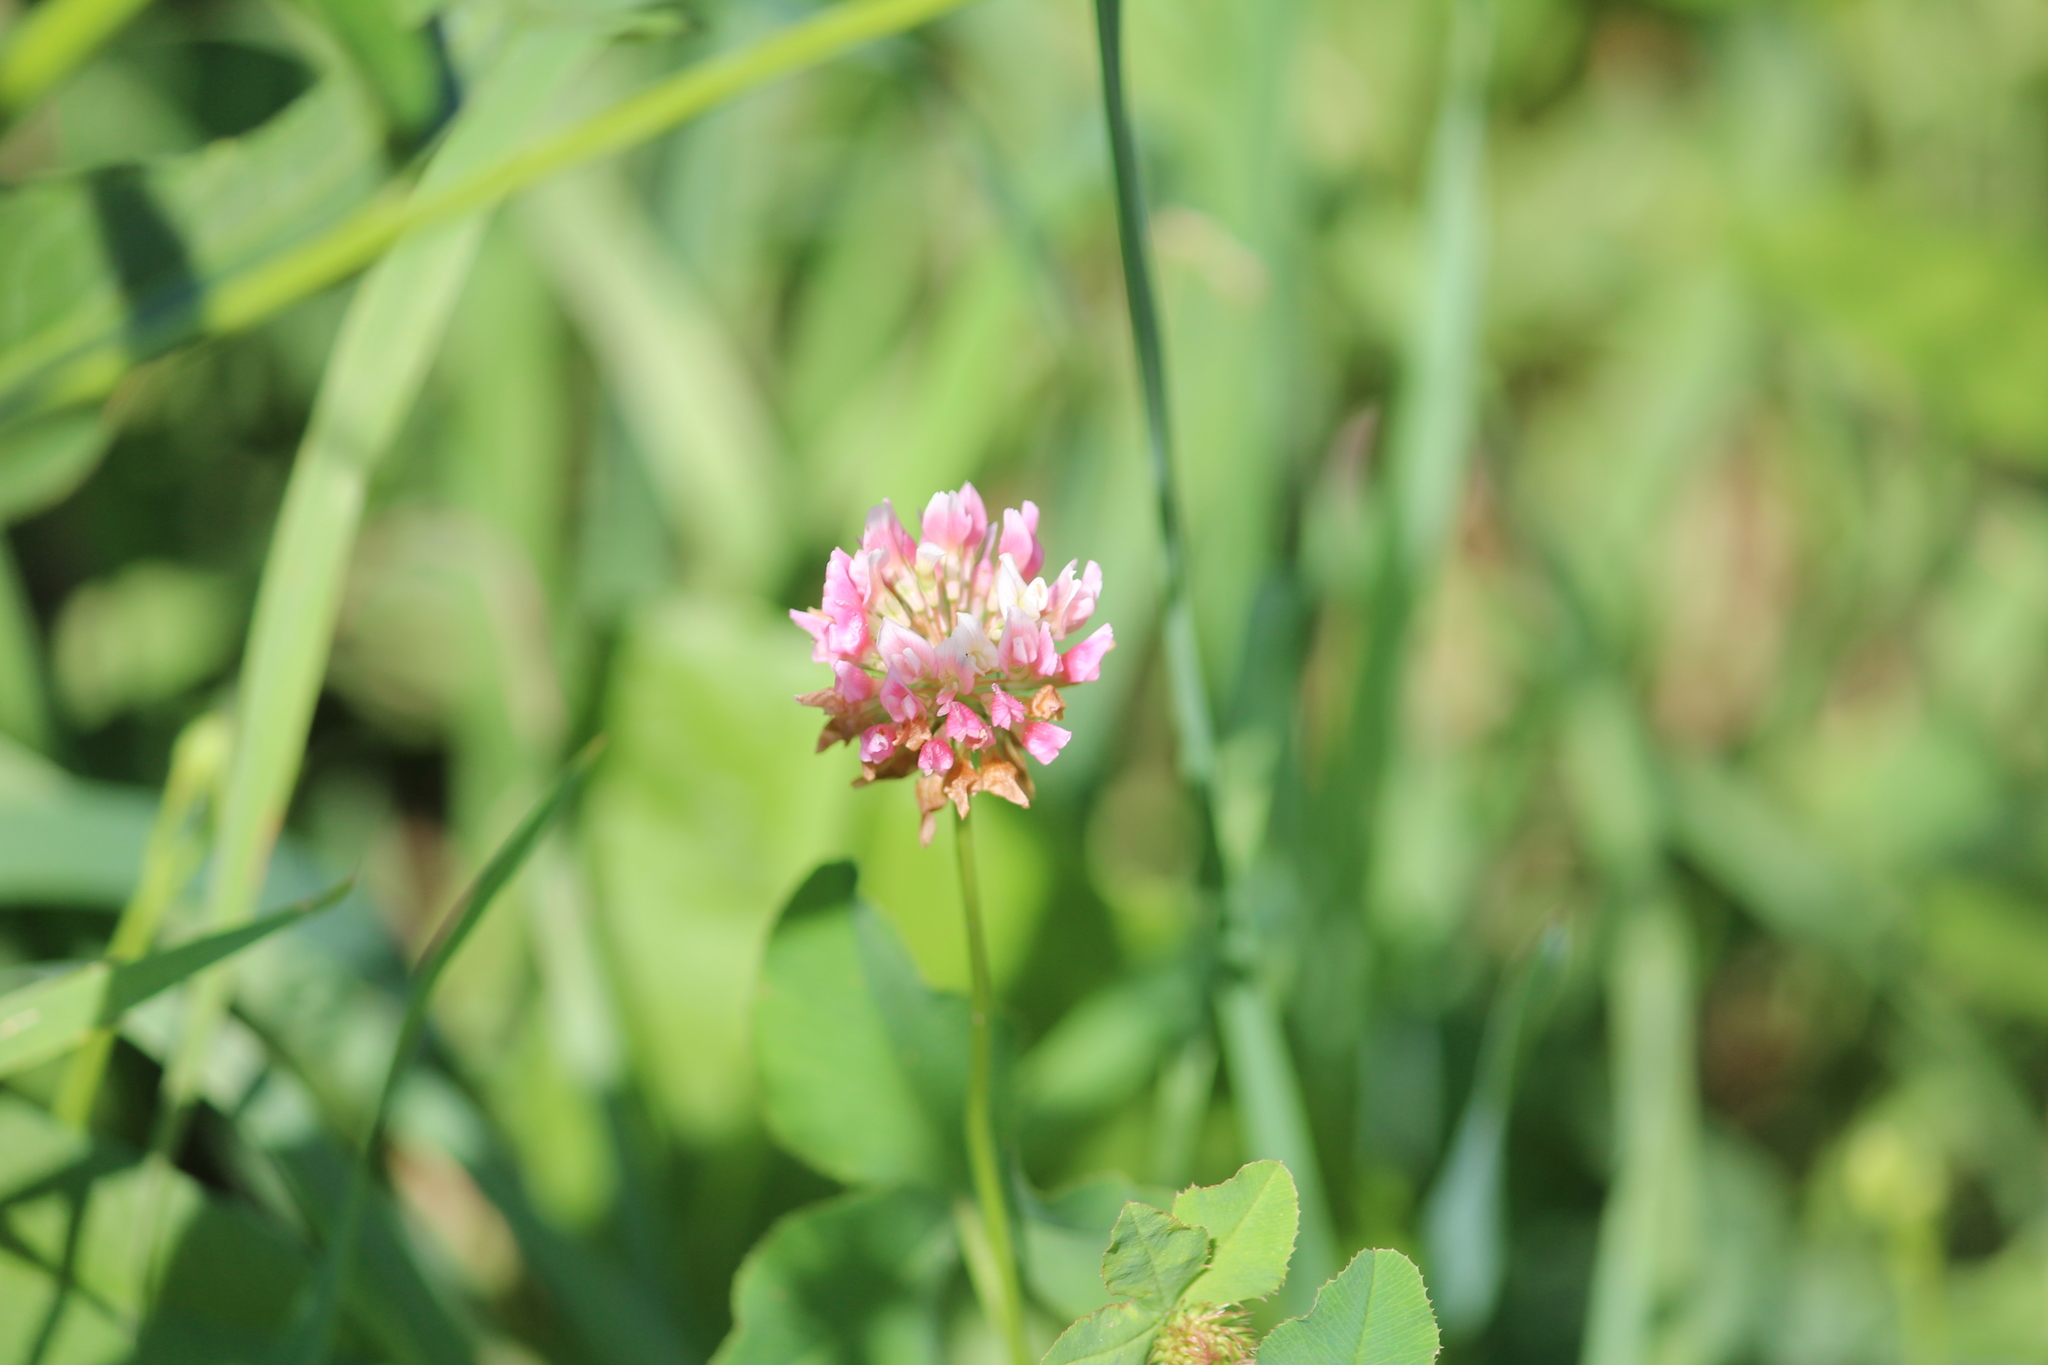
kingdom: Plantae
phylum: Tracheophyta
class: Magnoliopsida
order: Fabales
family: Fabaceae
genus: Trifolium
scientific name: Trifolium hybridum
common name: Alsike clover
